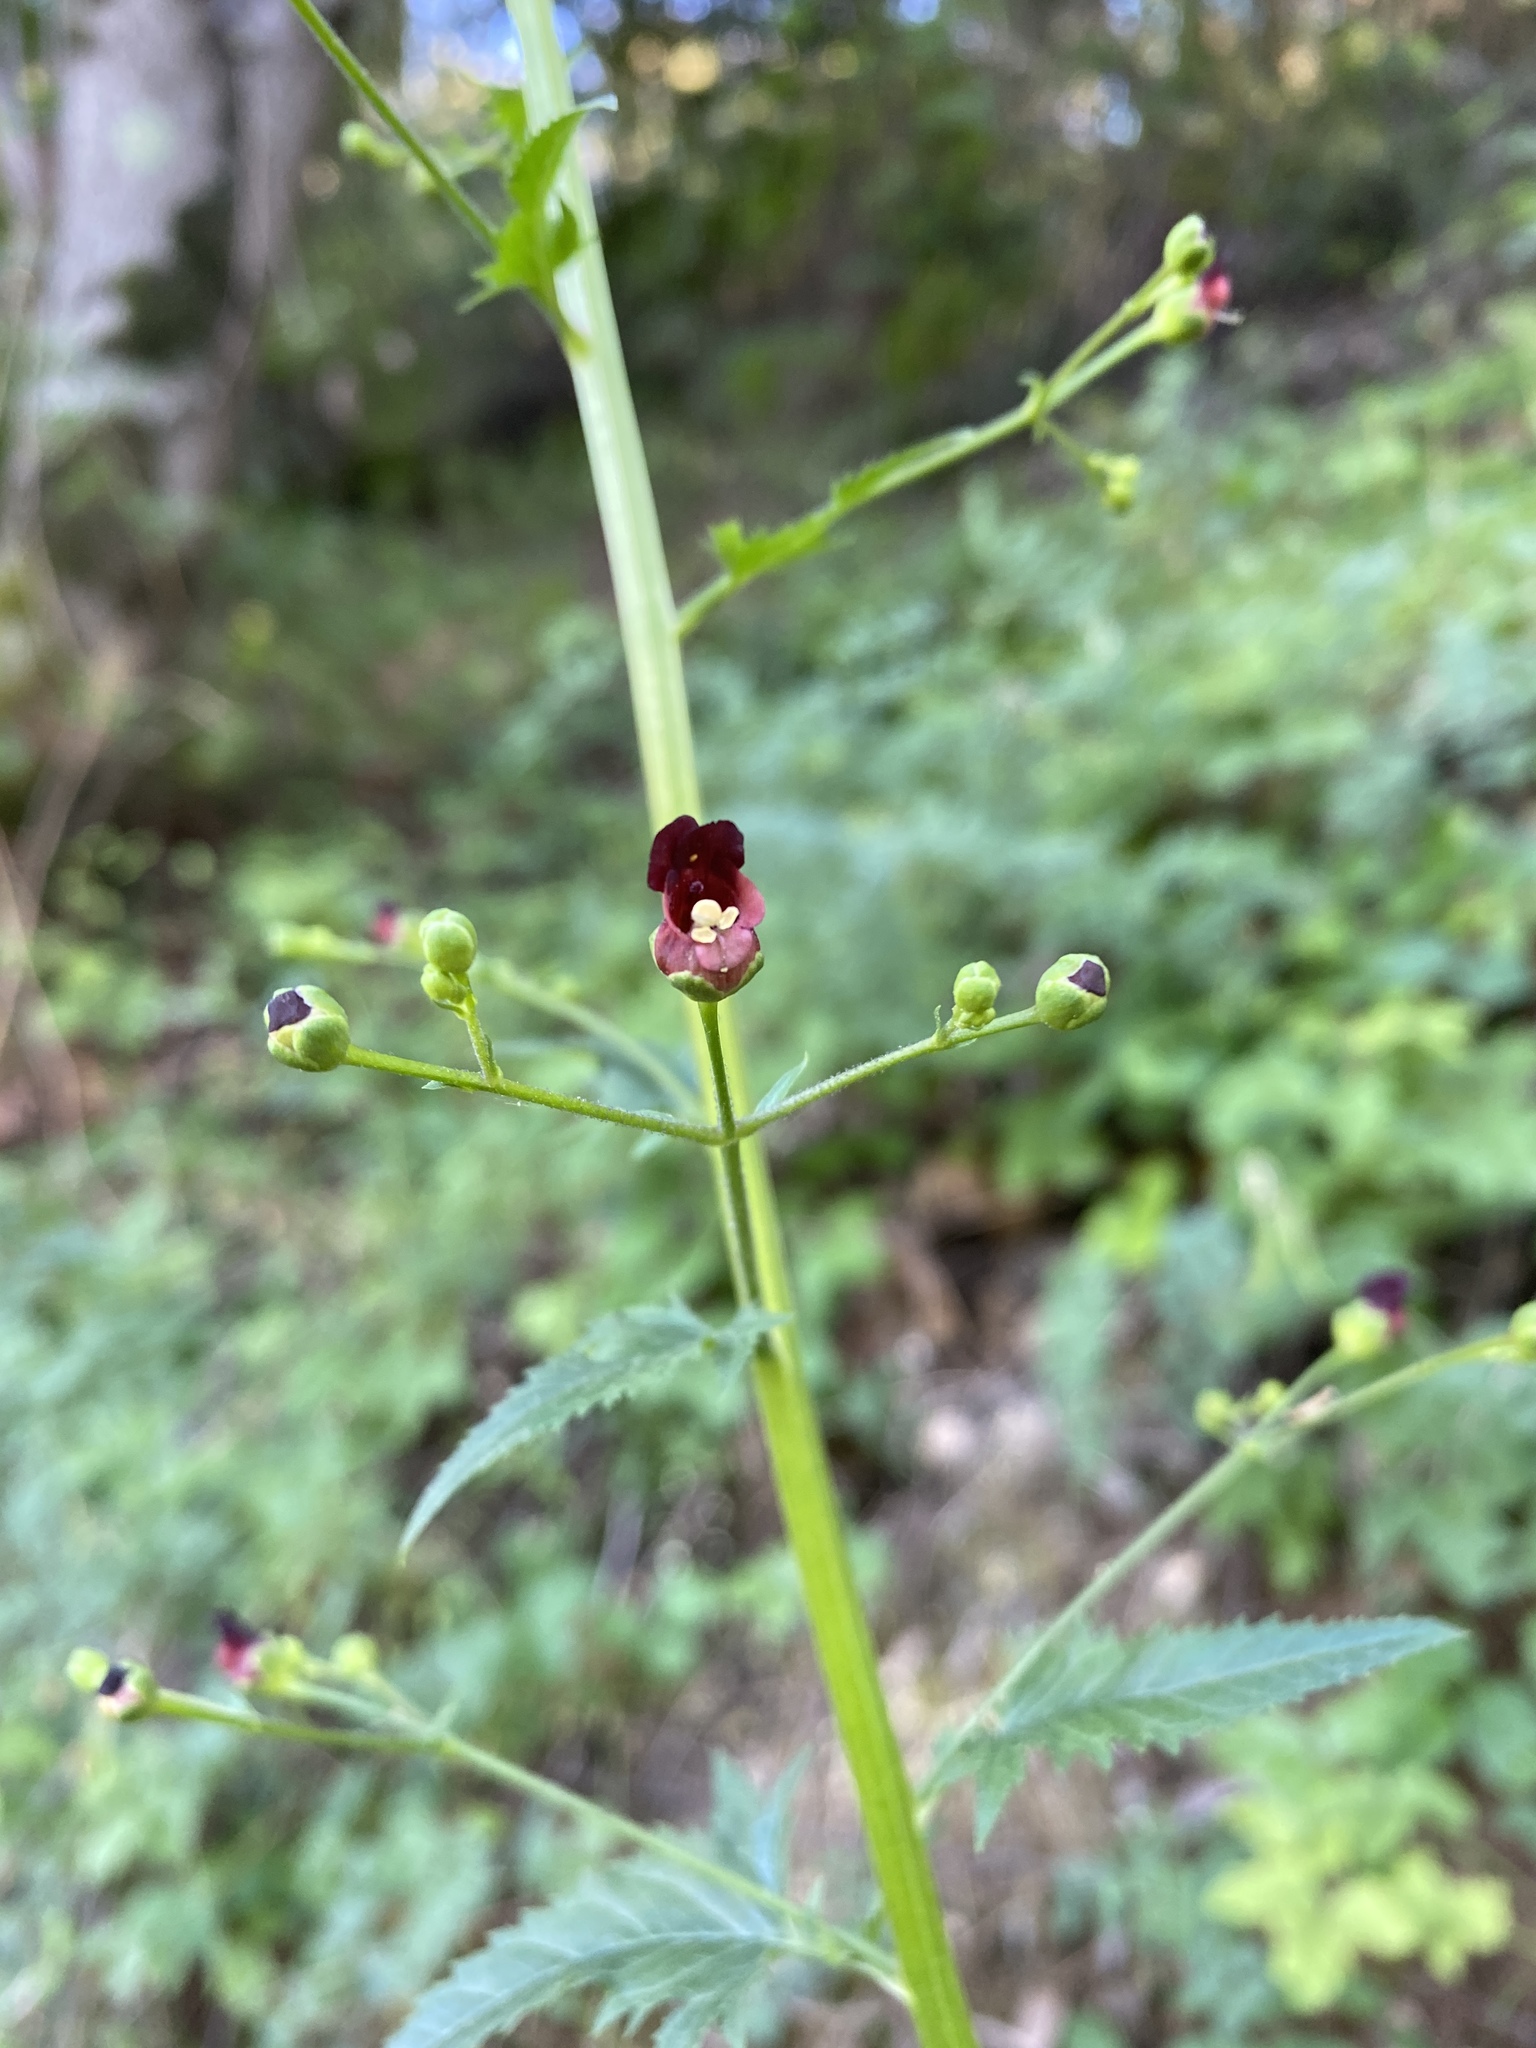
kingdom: Plantae
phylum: Tracheophyta
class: Magnoliopsida
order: Lamiales
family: Scrophulariaceae
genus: Scrophularia
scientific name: Scrophularia californica
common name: California figwort
